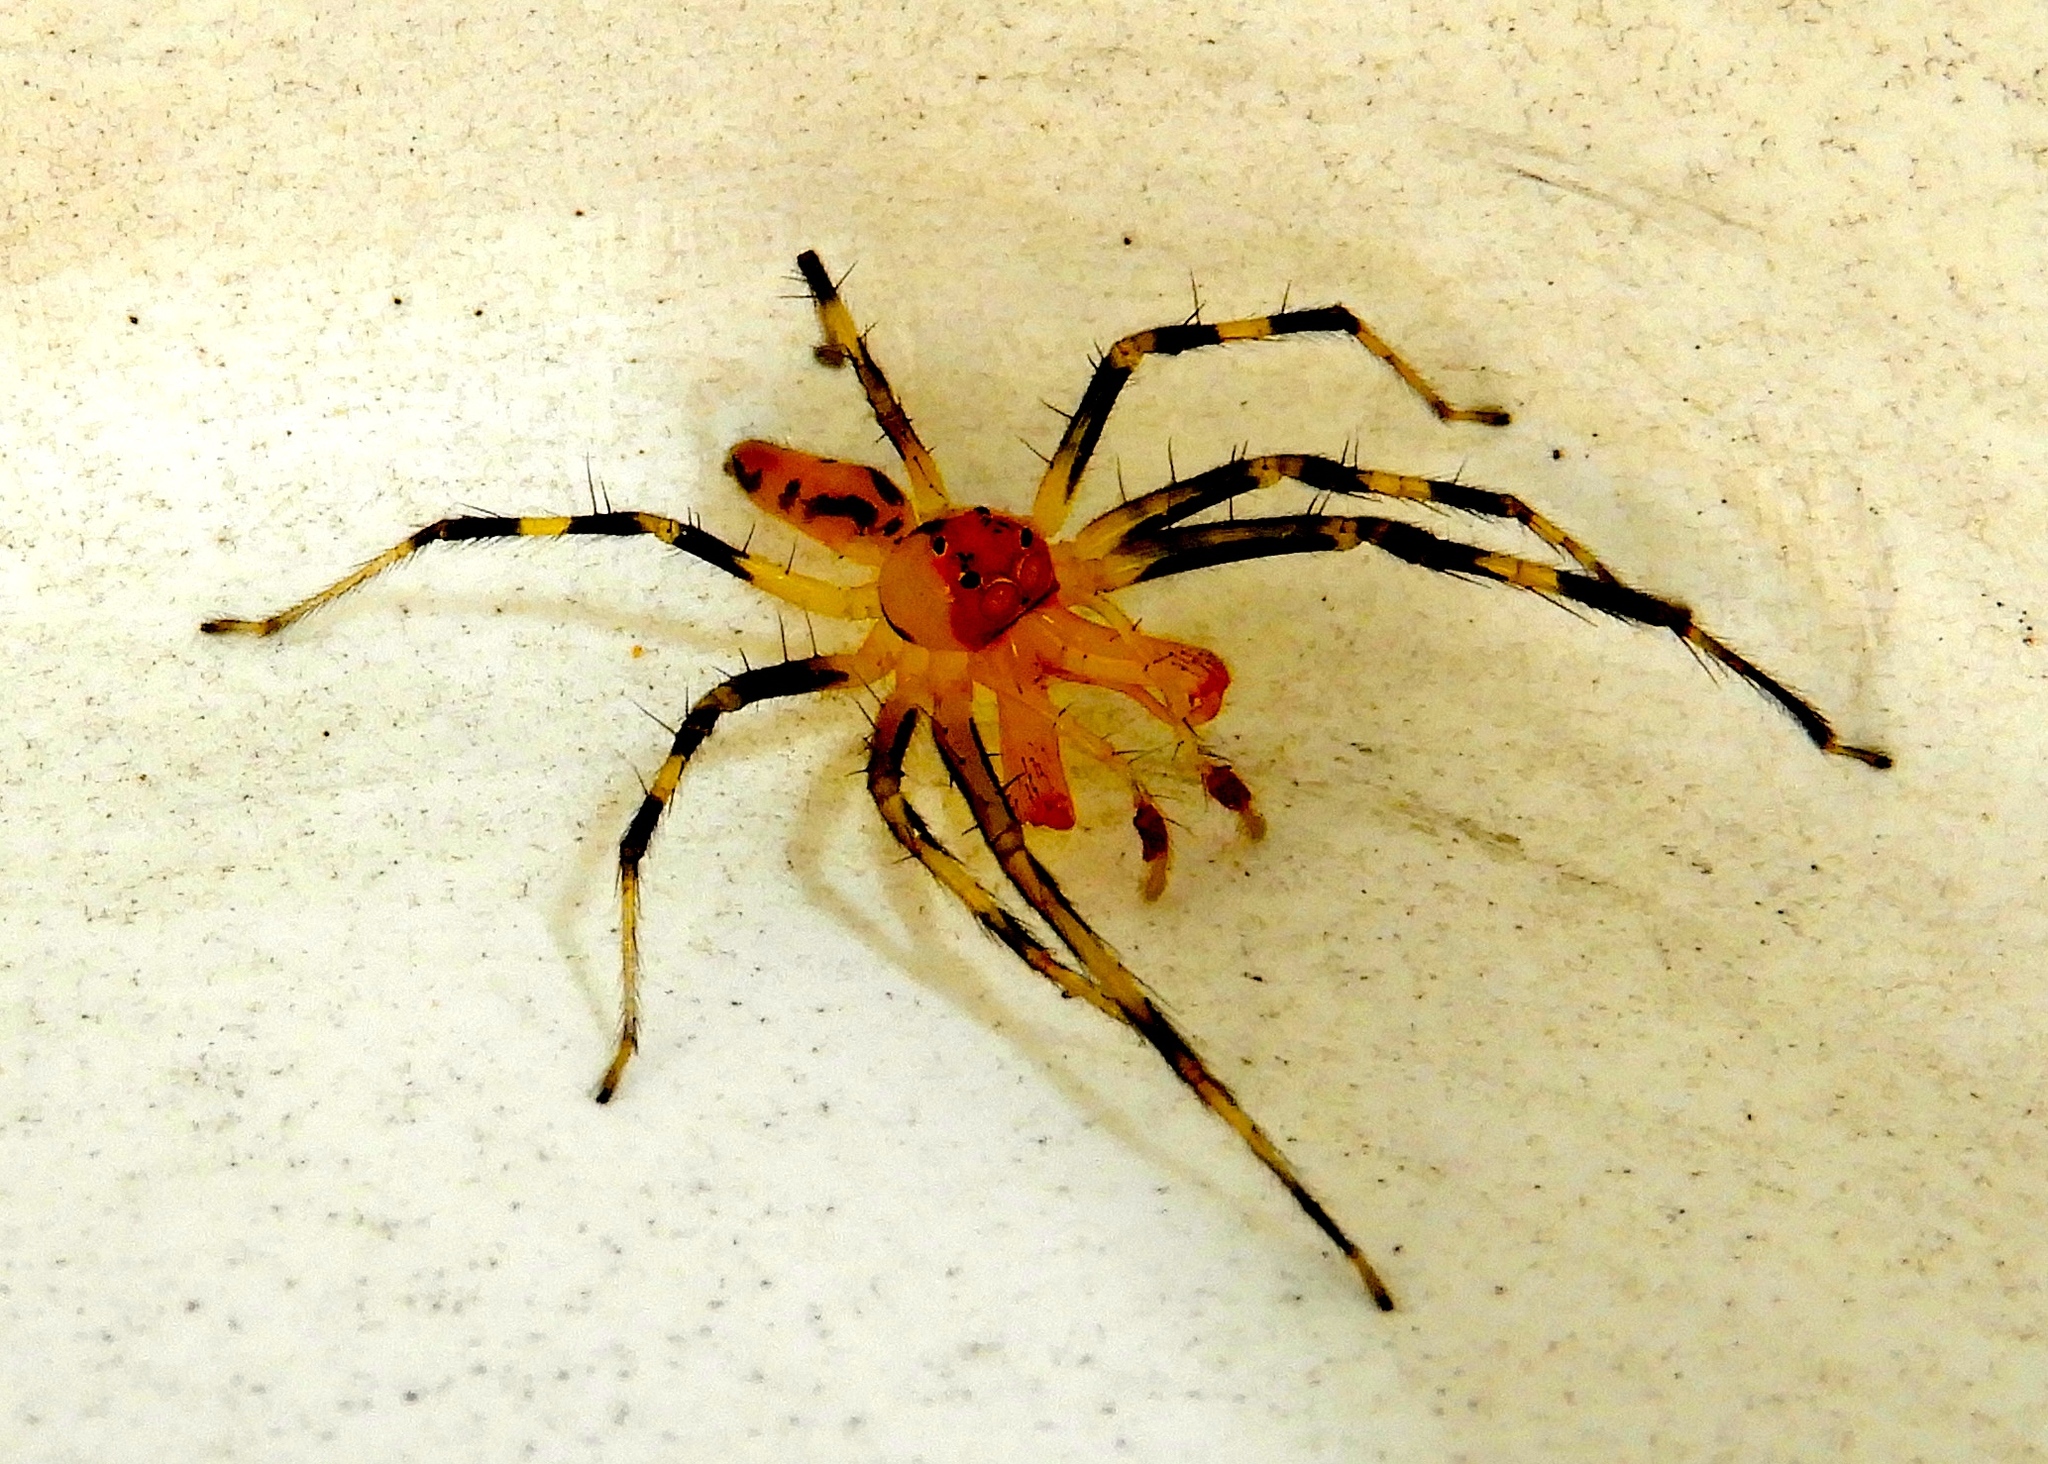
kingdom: Animalia
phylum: Arthropoda
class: Arachnida
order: Araneae
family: Salticidae
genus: Lyssomanes
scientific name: Lyssomanes
